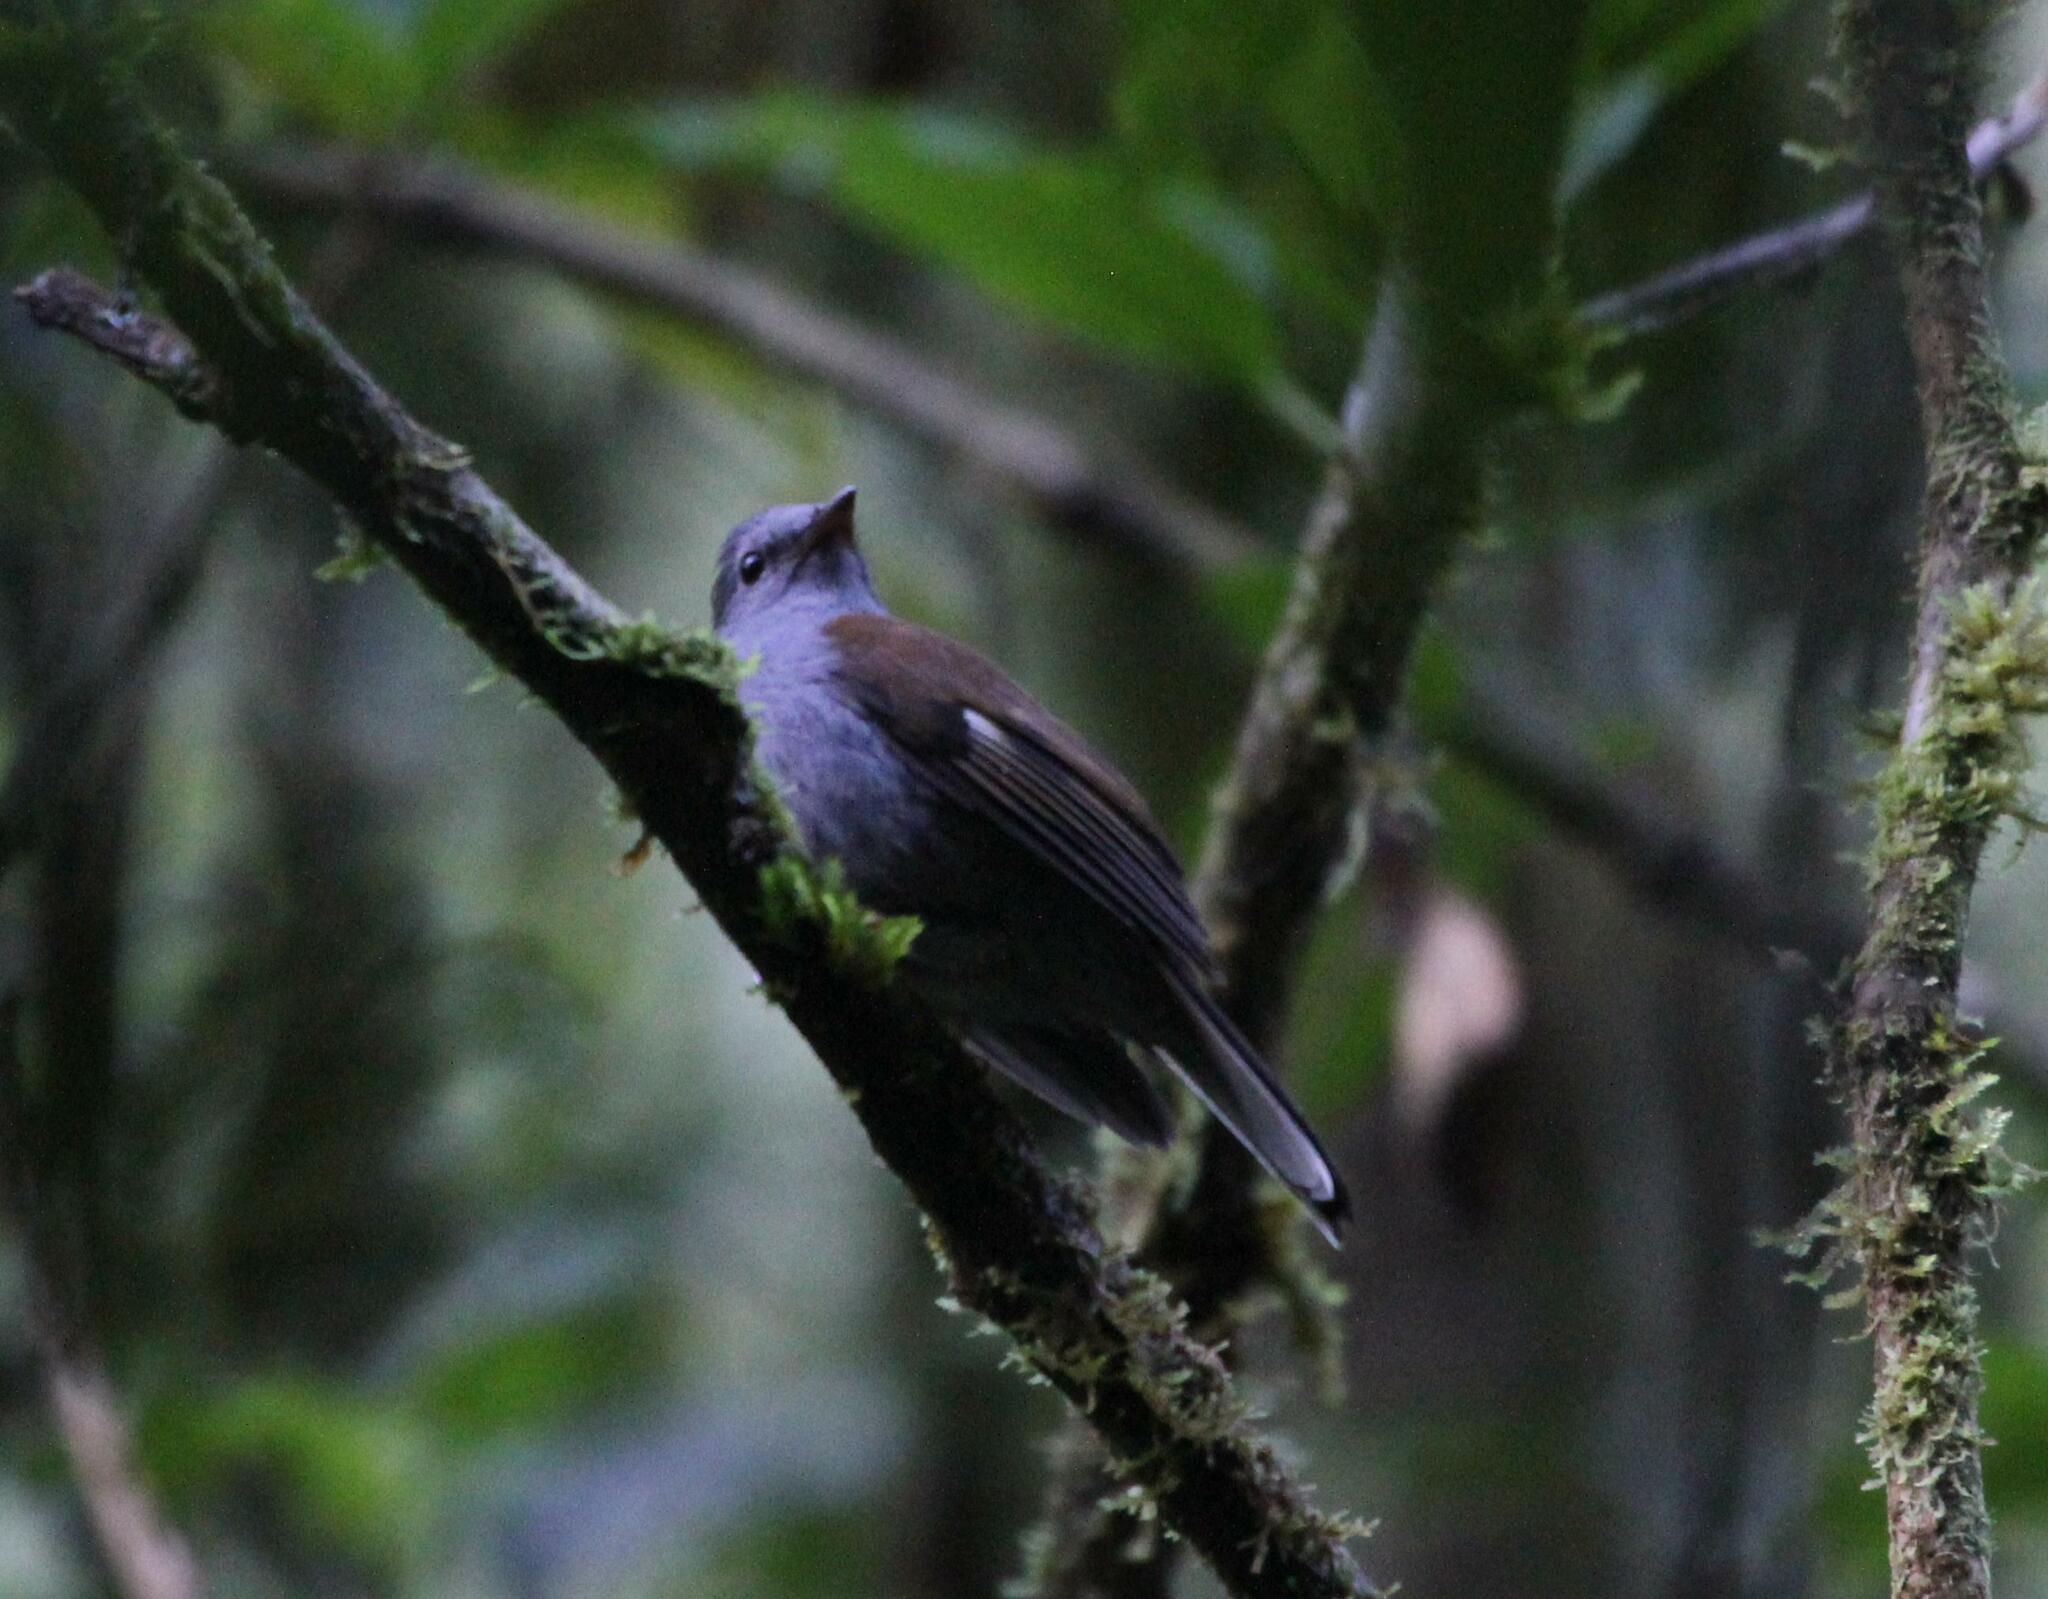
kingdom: Animalia
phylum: Chordata
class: Aves
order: Passeriformes
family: Turdidae
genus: Myadestes
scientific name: Myadestes ralloides
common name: Andean solitaire
